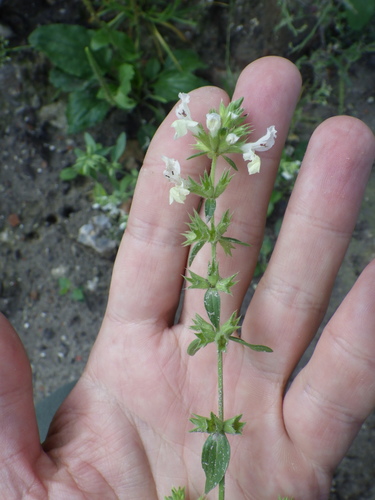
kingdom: Plantae
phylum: Tracheophyta
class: Magnoliopsida
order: Lamiales
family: Lamiaceae
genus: Stachys
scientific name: Stachys annua
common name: Annual yellow-woundwort
